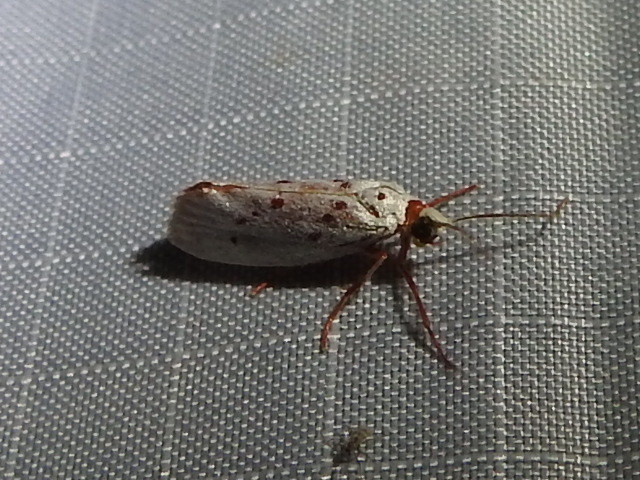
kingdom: Animalia
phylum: Arthropoda
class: Insecta
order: Lepidoptera
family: Lacturidae
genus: Lactura
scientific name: Lactura
